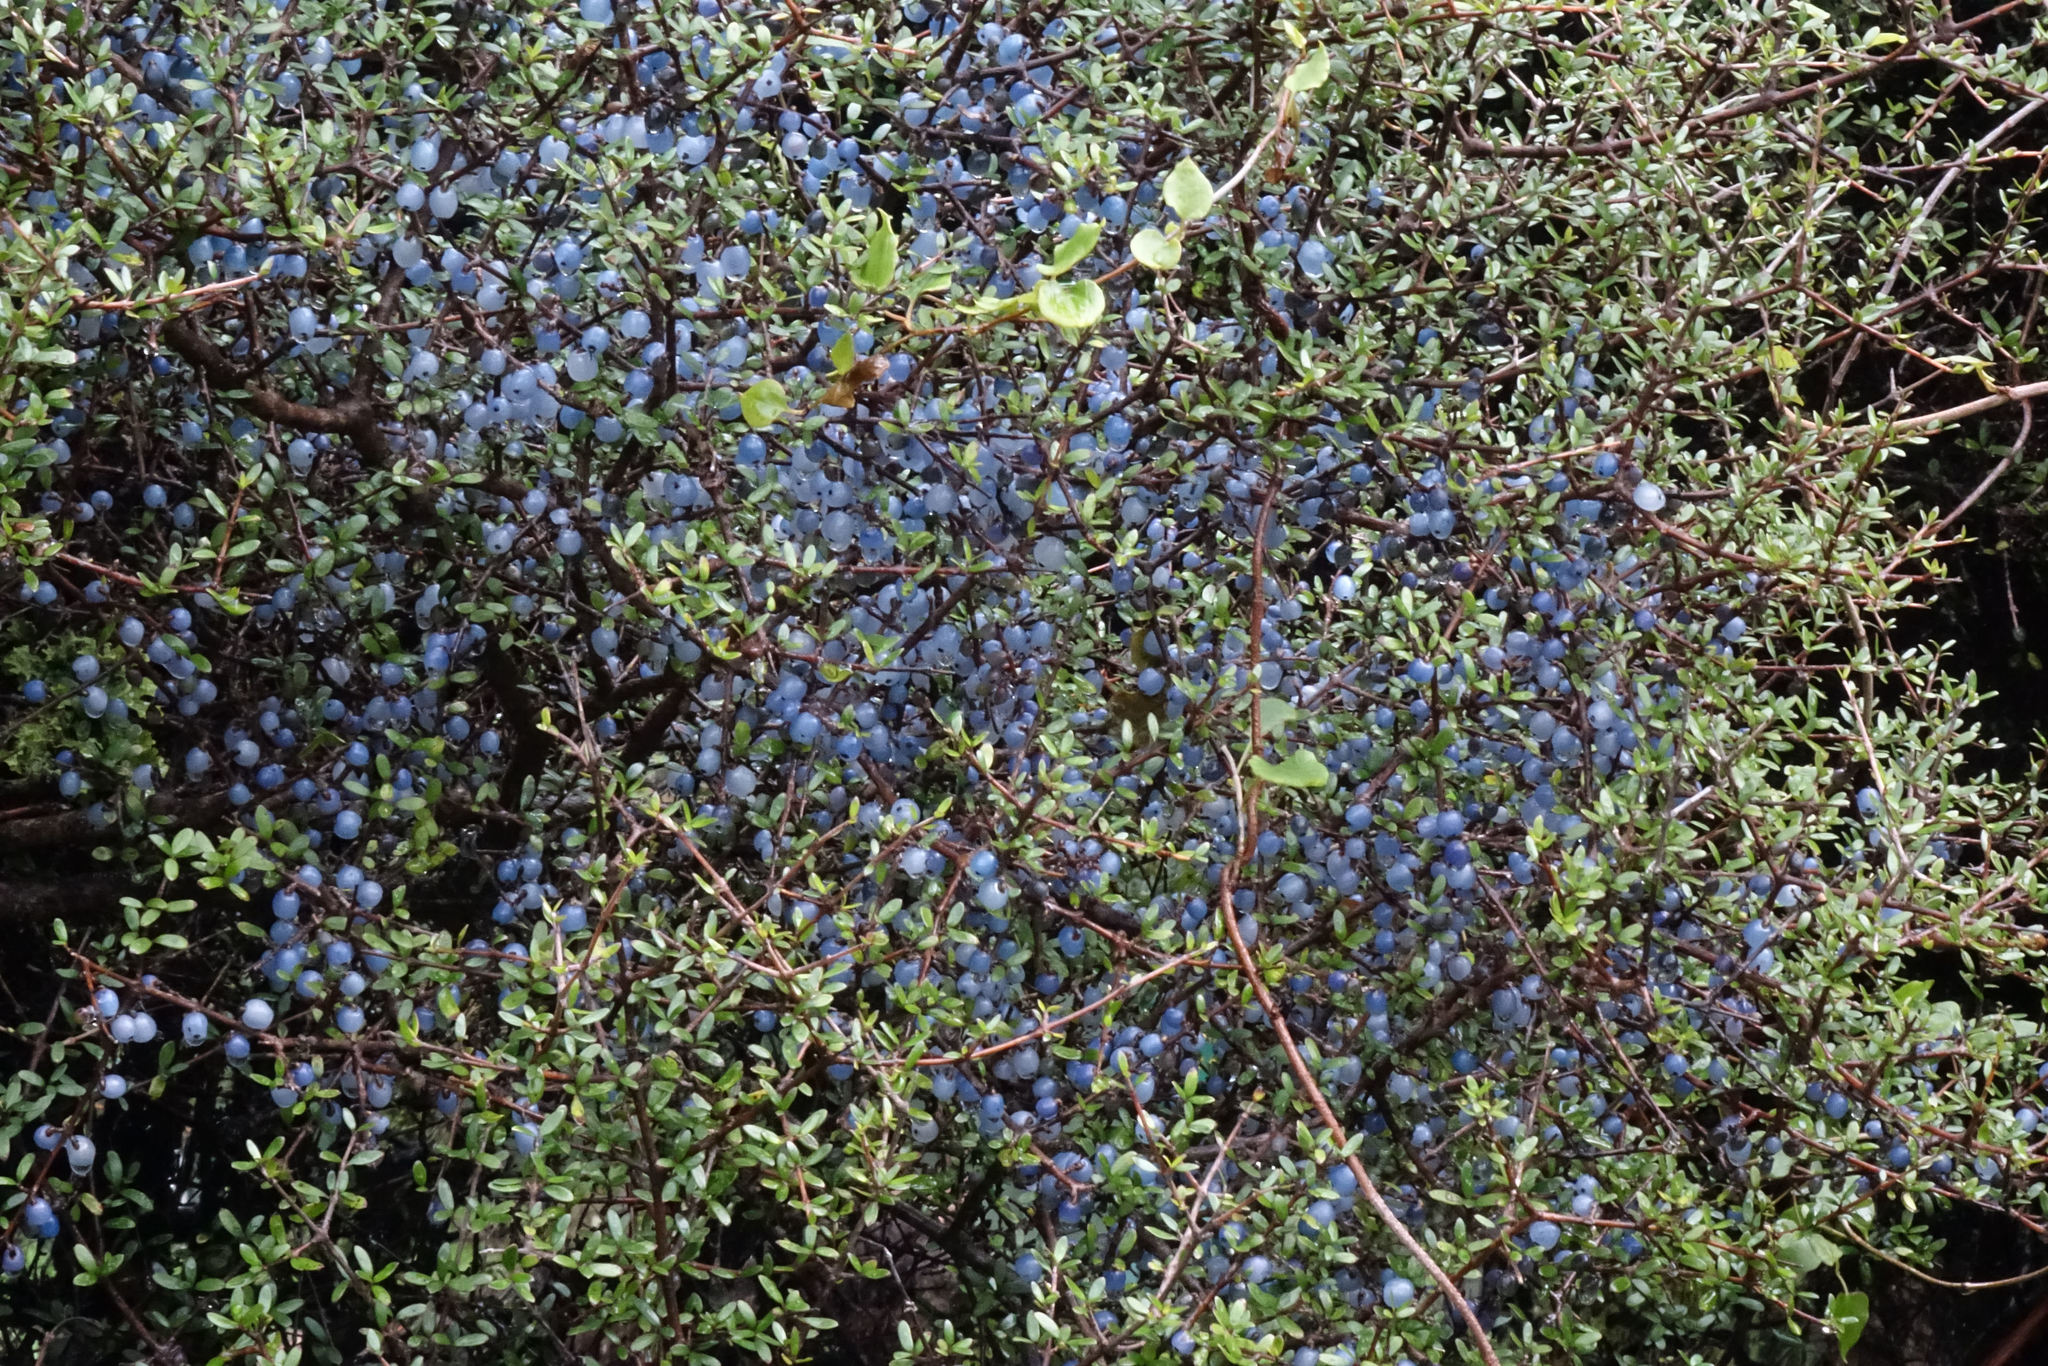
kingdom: Plantae
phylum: Tracheophyta
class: Magnoliopsida
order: Gentianales
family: Rubiaceae
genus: Coprosma
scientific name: Coprosma propinqua
